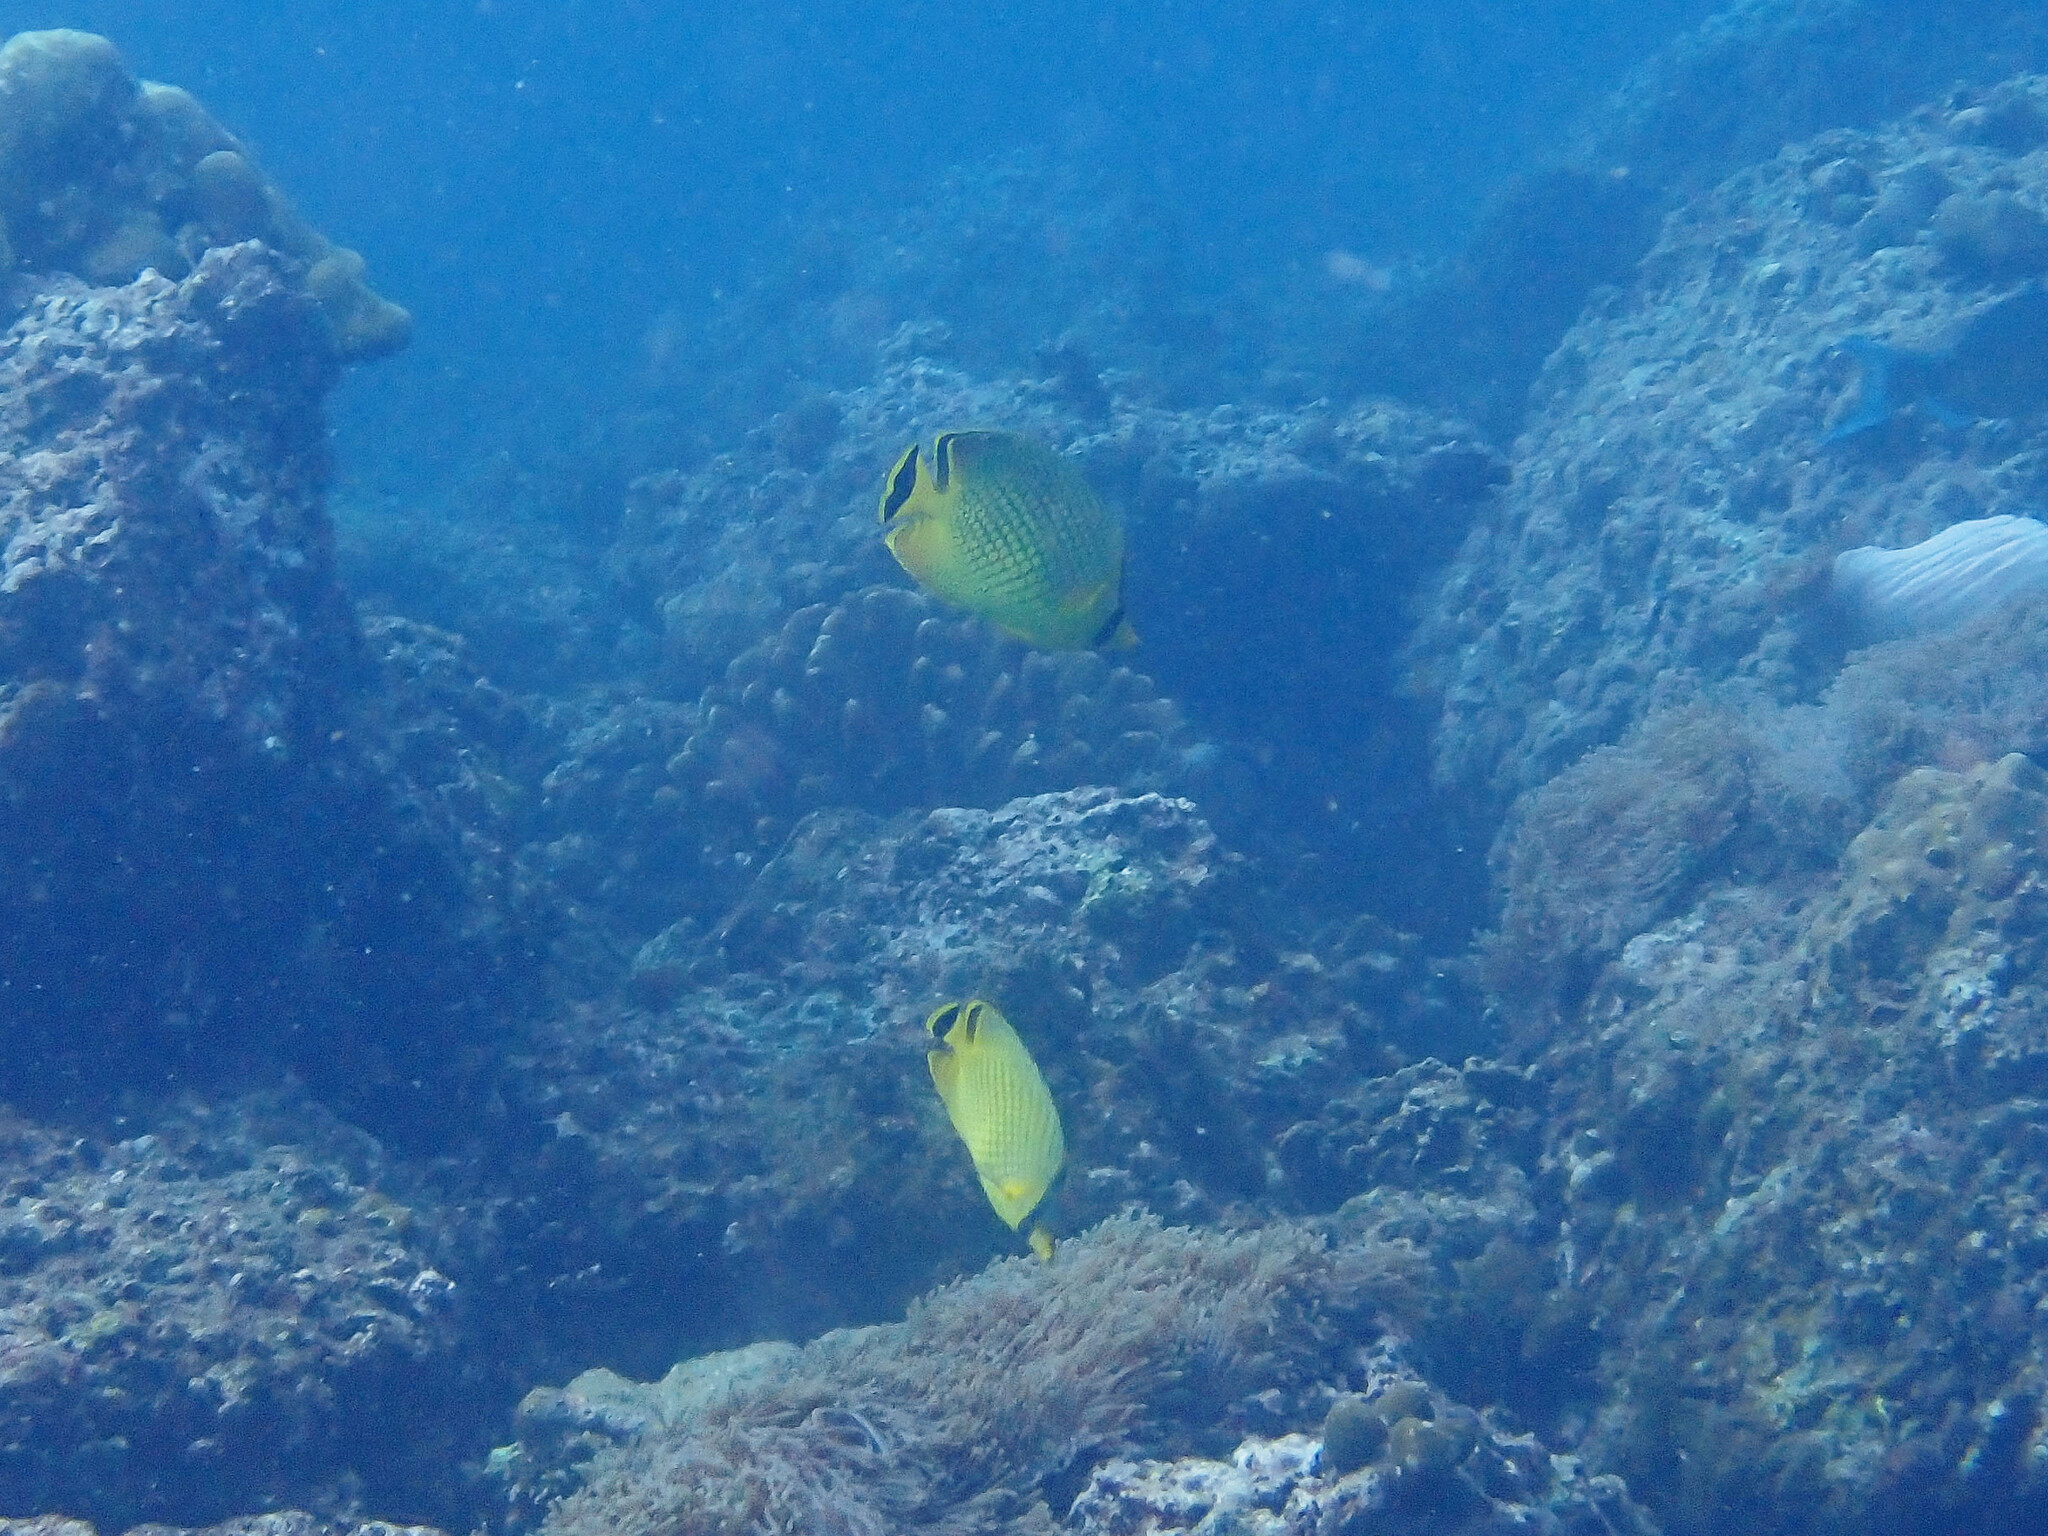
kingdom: Animalia
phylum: Chordata
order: Perciformes
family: Chaetodontidae
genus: Chaetodon
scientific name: Chaetodon rafflesii
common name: Latticed butterflyfish
